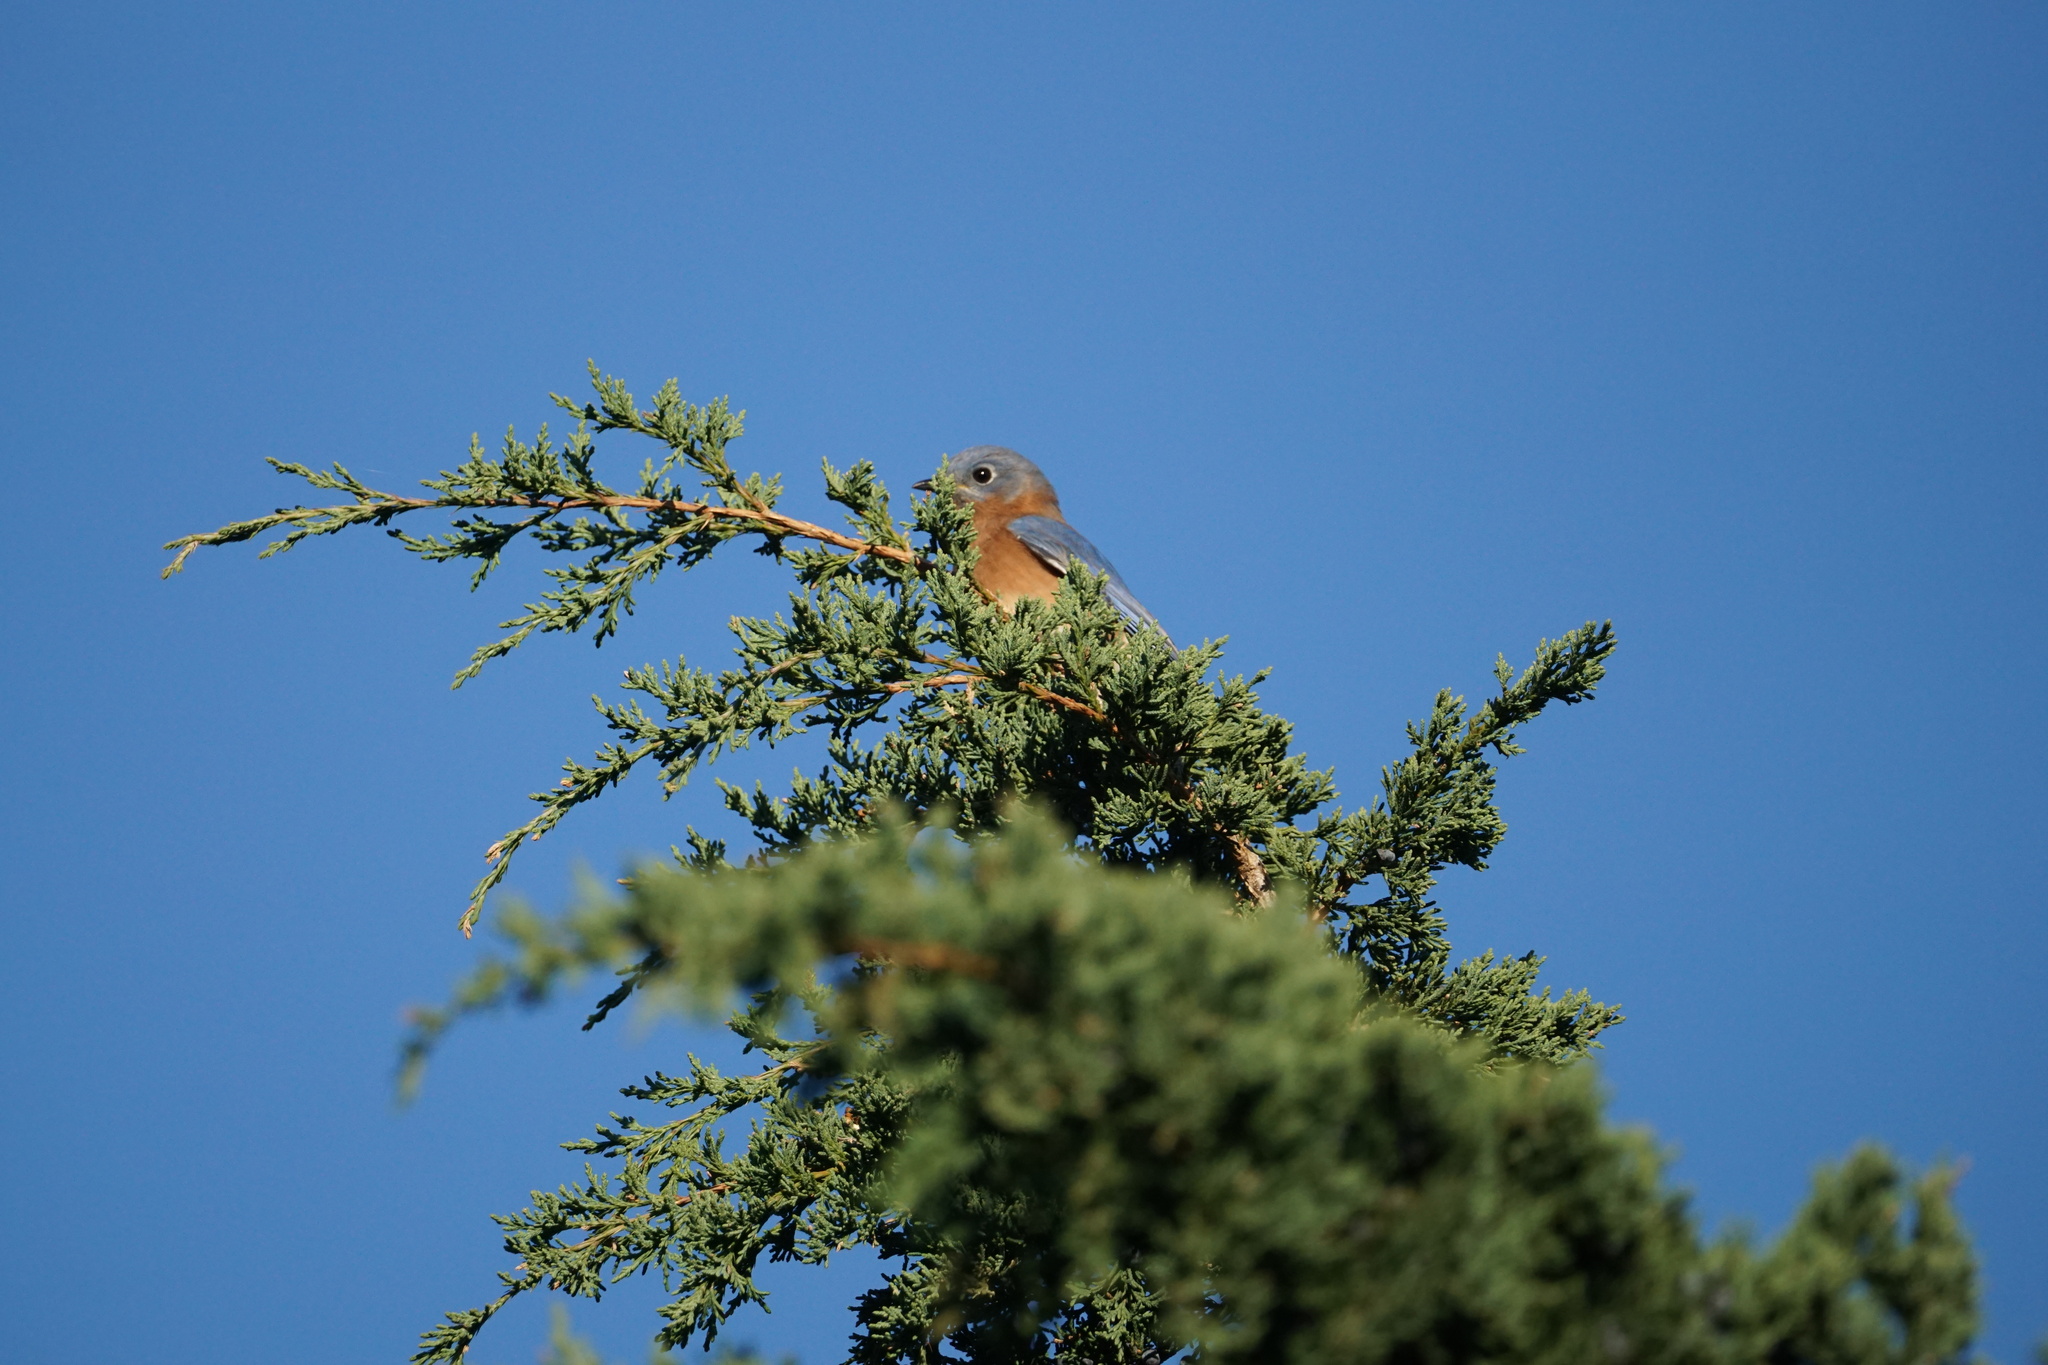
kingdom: Animalia
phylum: Chordata
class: Aves
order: Passeriformes
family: Turdidae
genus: Sialia
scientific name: Sialia sialis
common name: Eastern bluebird
